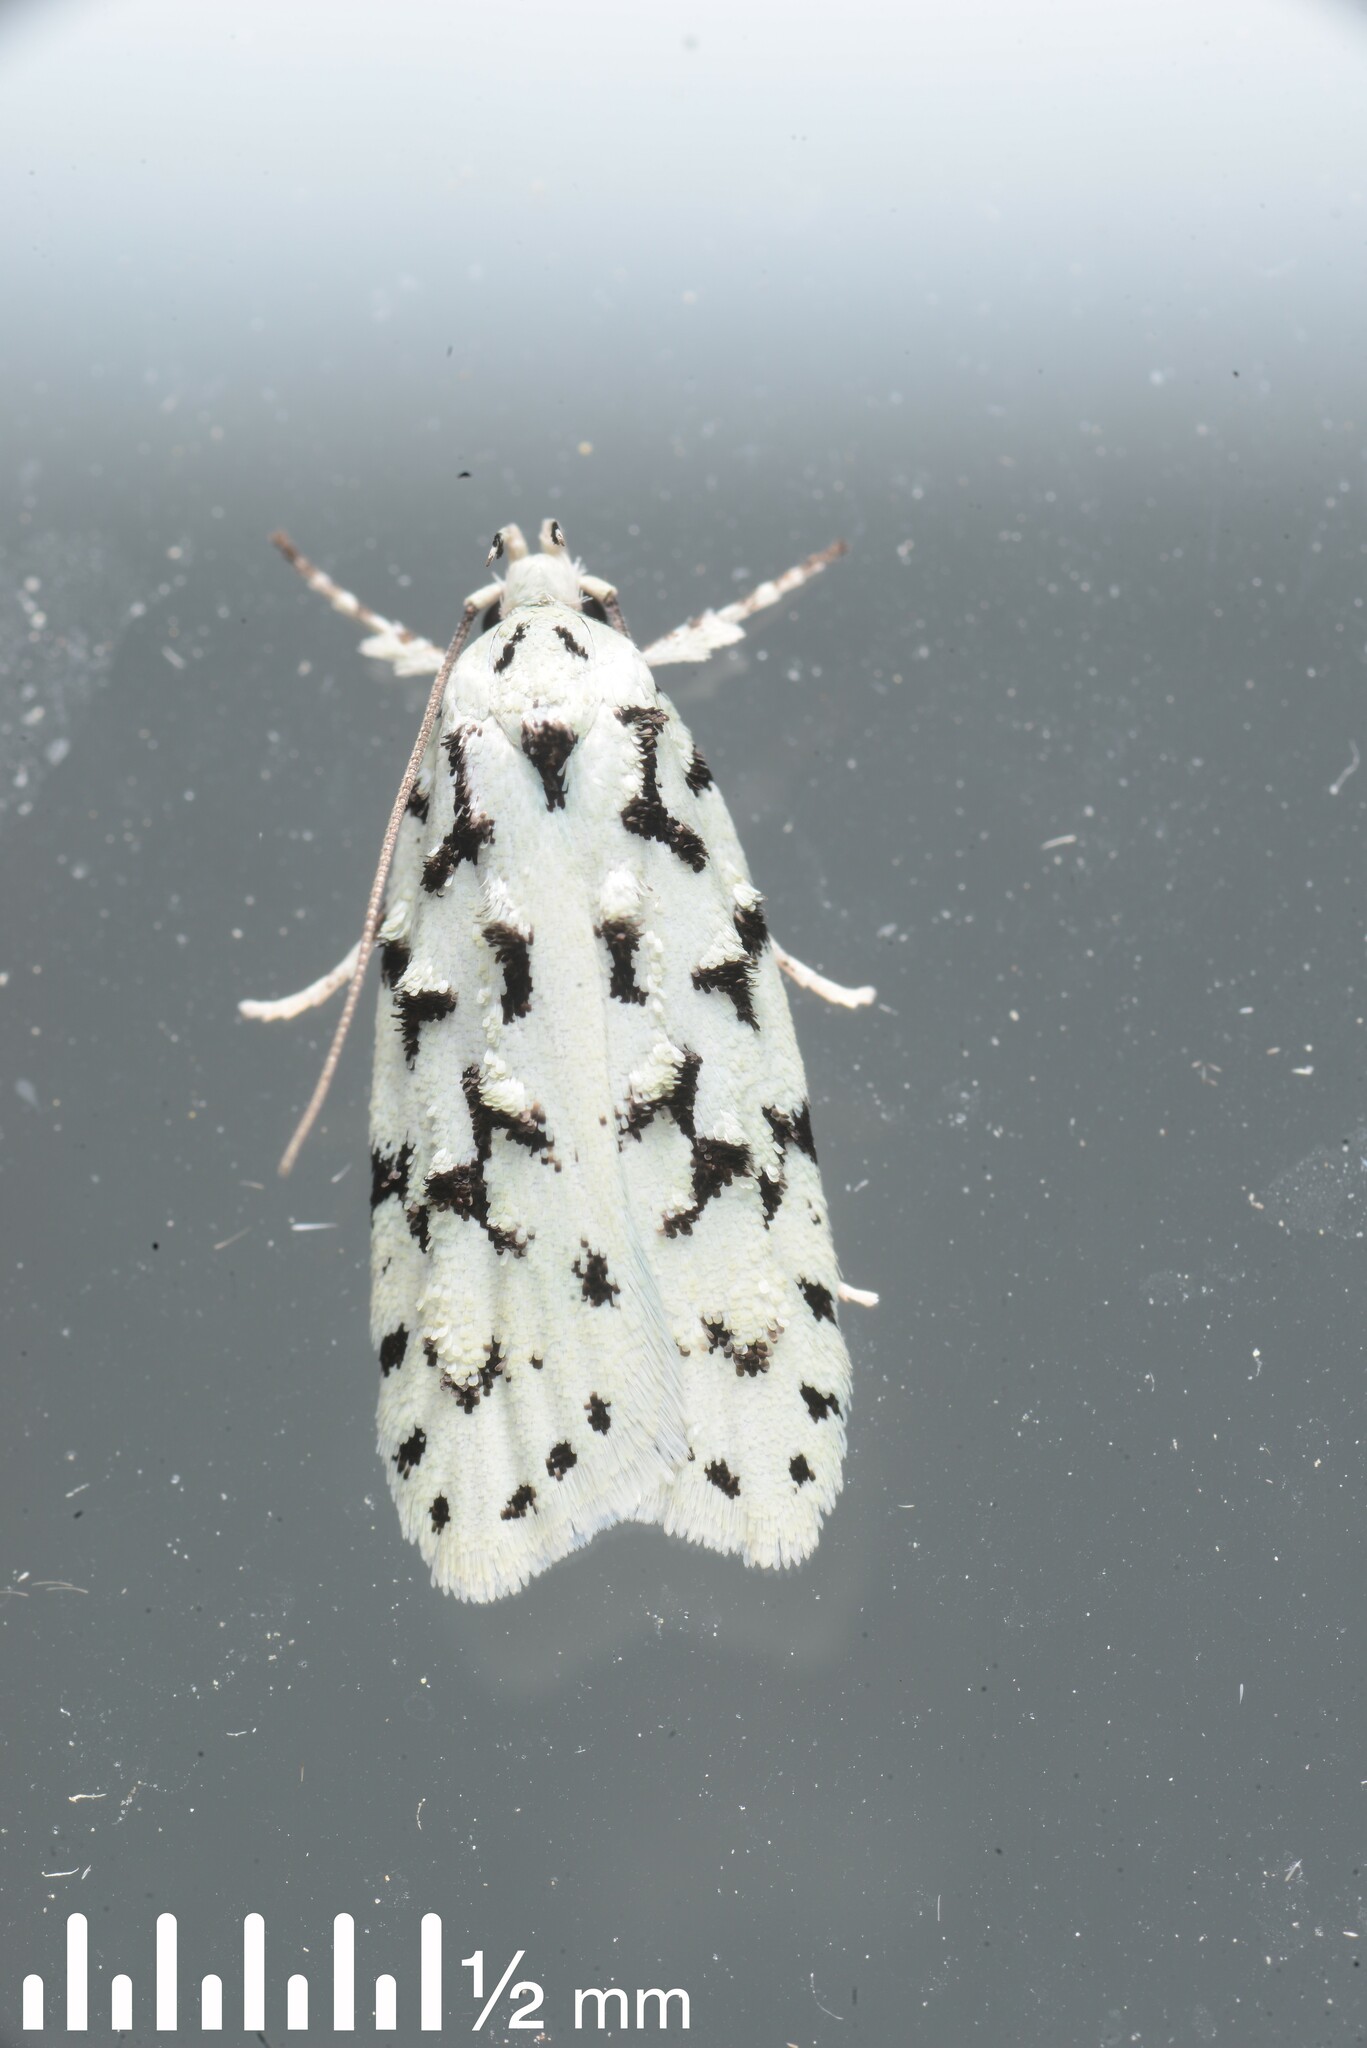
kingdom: Animalia
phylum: Arthropoda
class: Insecta
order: Lepidoptera
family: Oecophoridae
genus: Izatha
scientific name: Izatha huttoni
